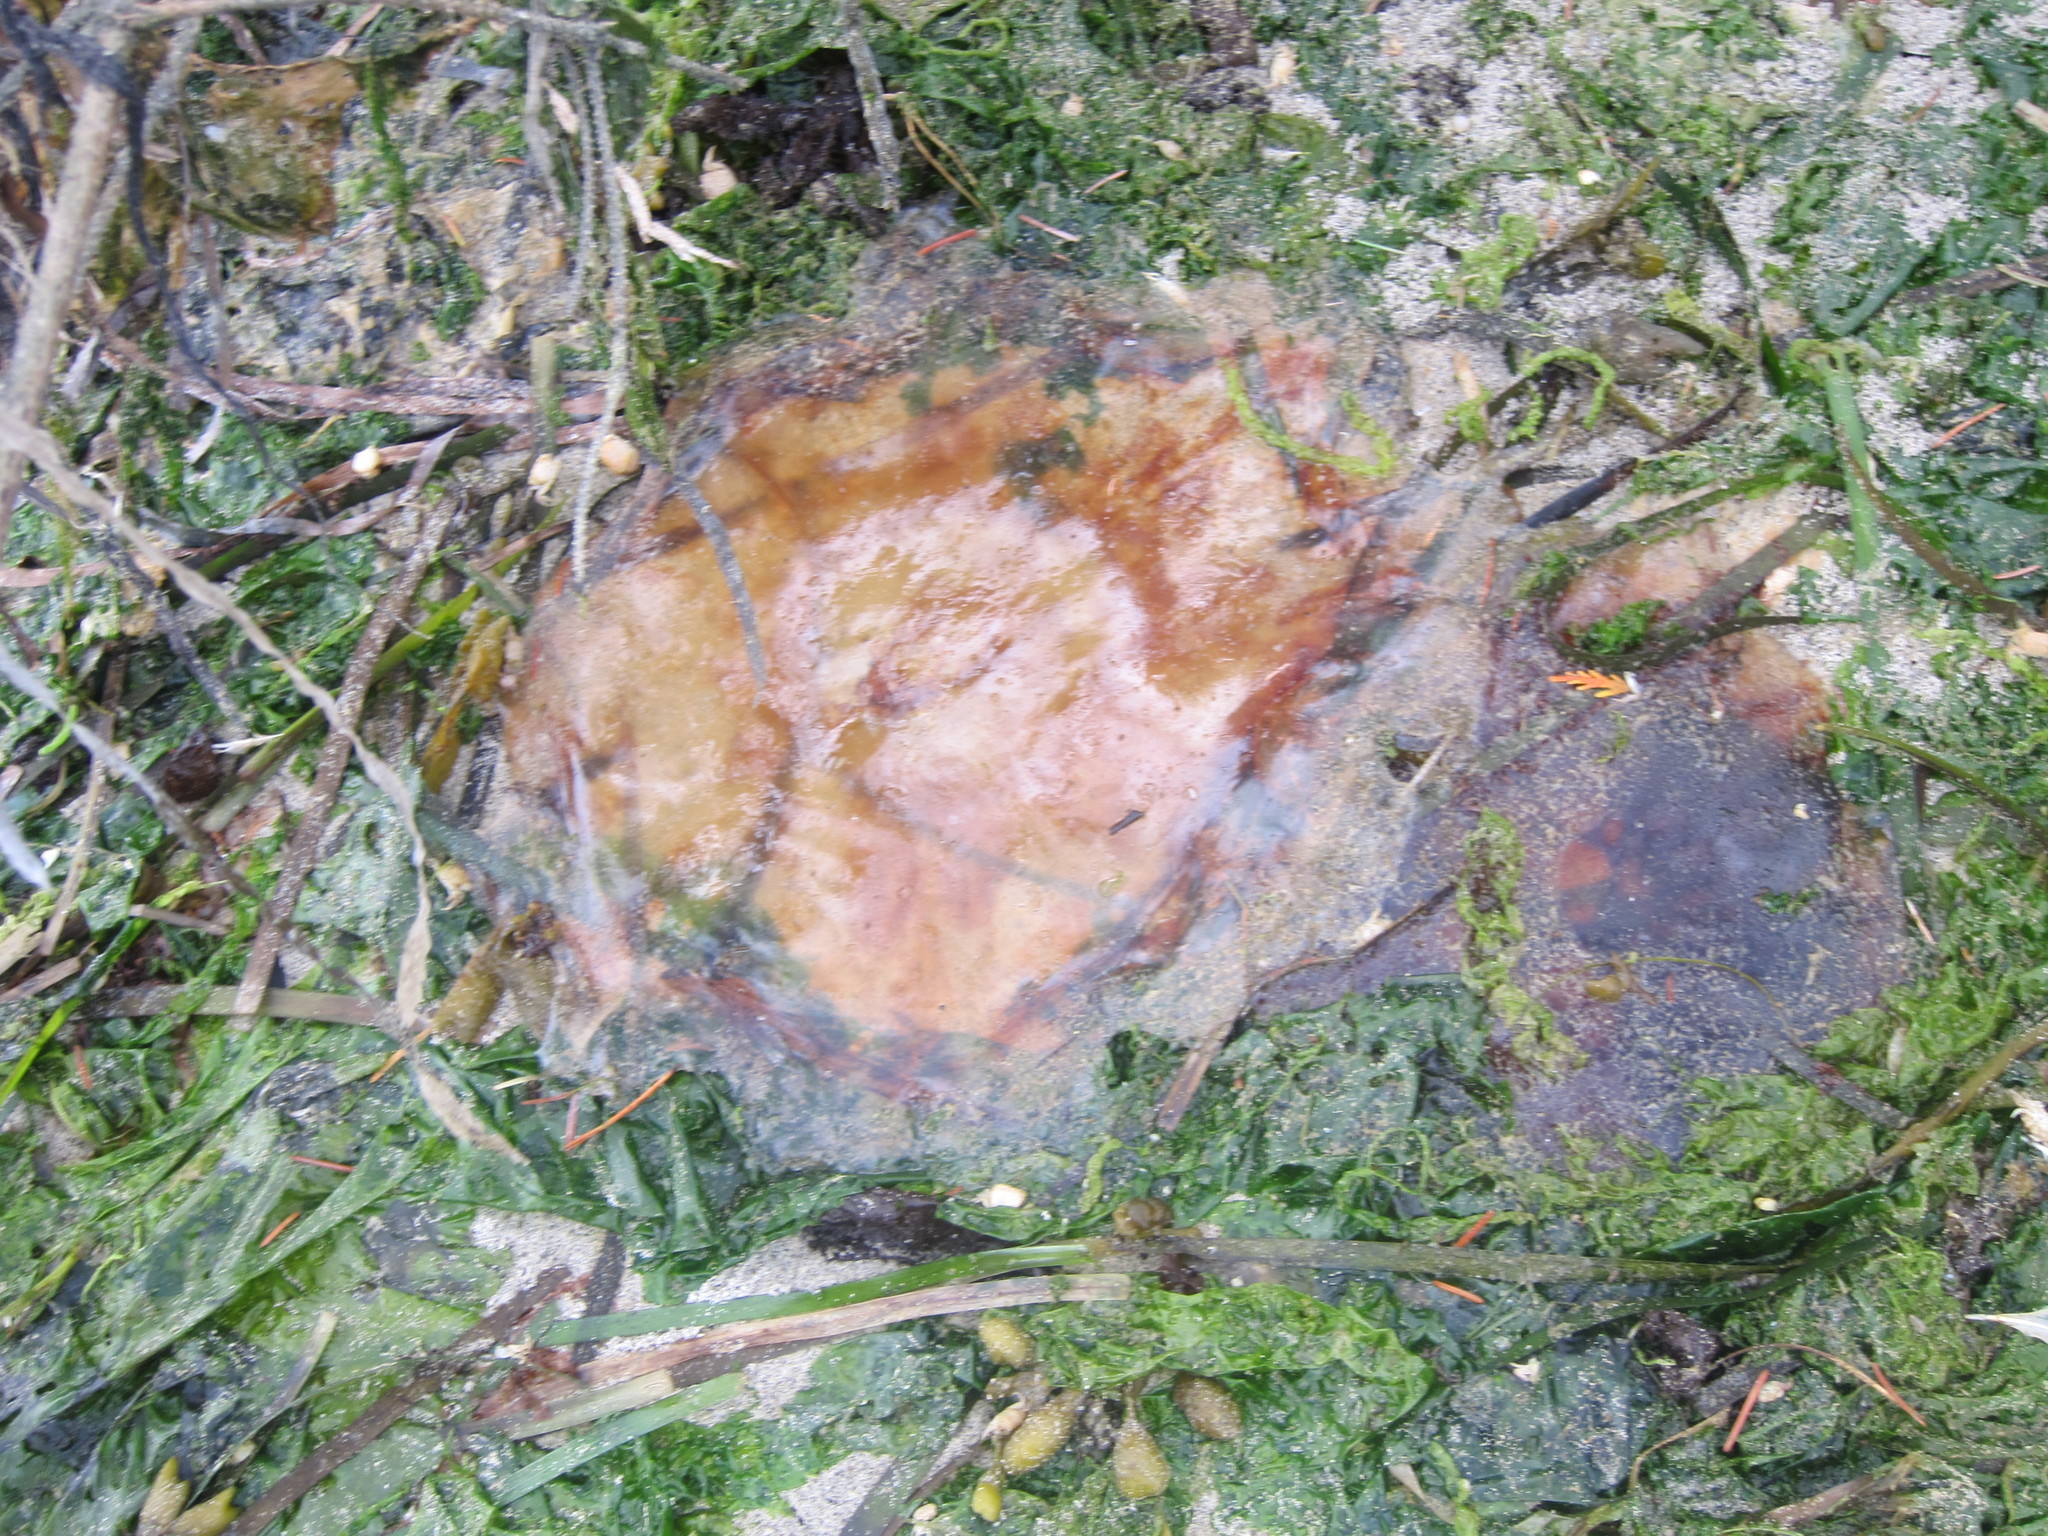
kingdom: Animalia
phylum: Cnidaria
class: Scyphozoa
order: Semaeostomeae
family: Cyaneidae
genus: Cyanea
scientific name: Cyanea ferruginea
